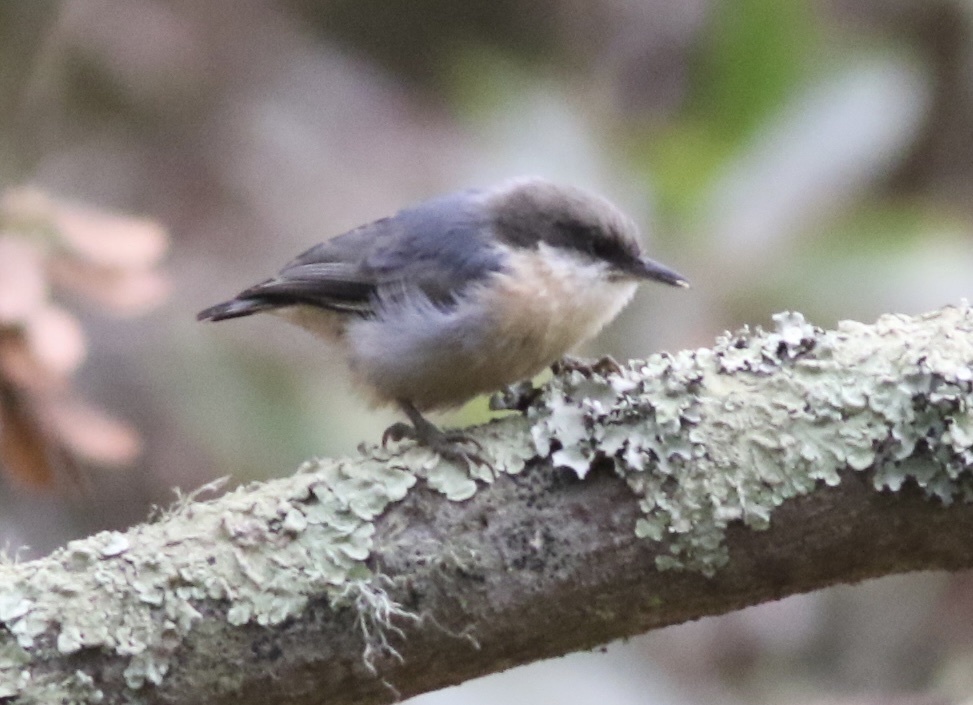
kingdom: Animalia
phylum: Chordata
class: Aves
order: Passeriformes
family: Sittidae
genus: Sitta
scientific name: Sitta pygmaea
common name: Pygmy nuthatch
